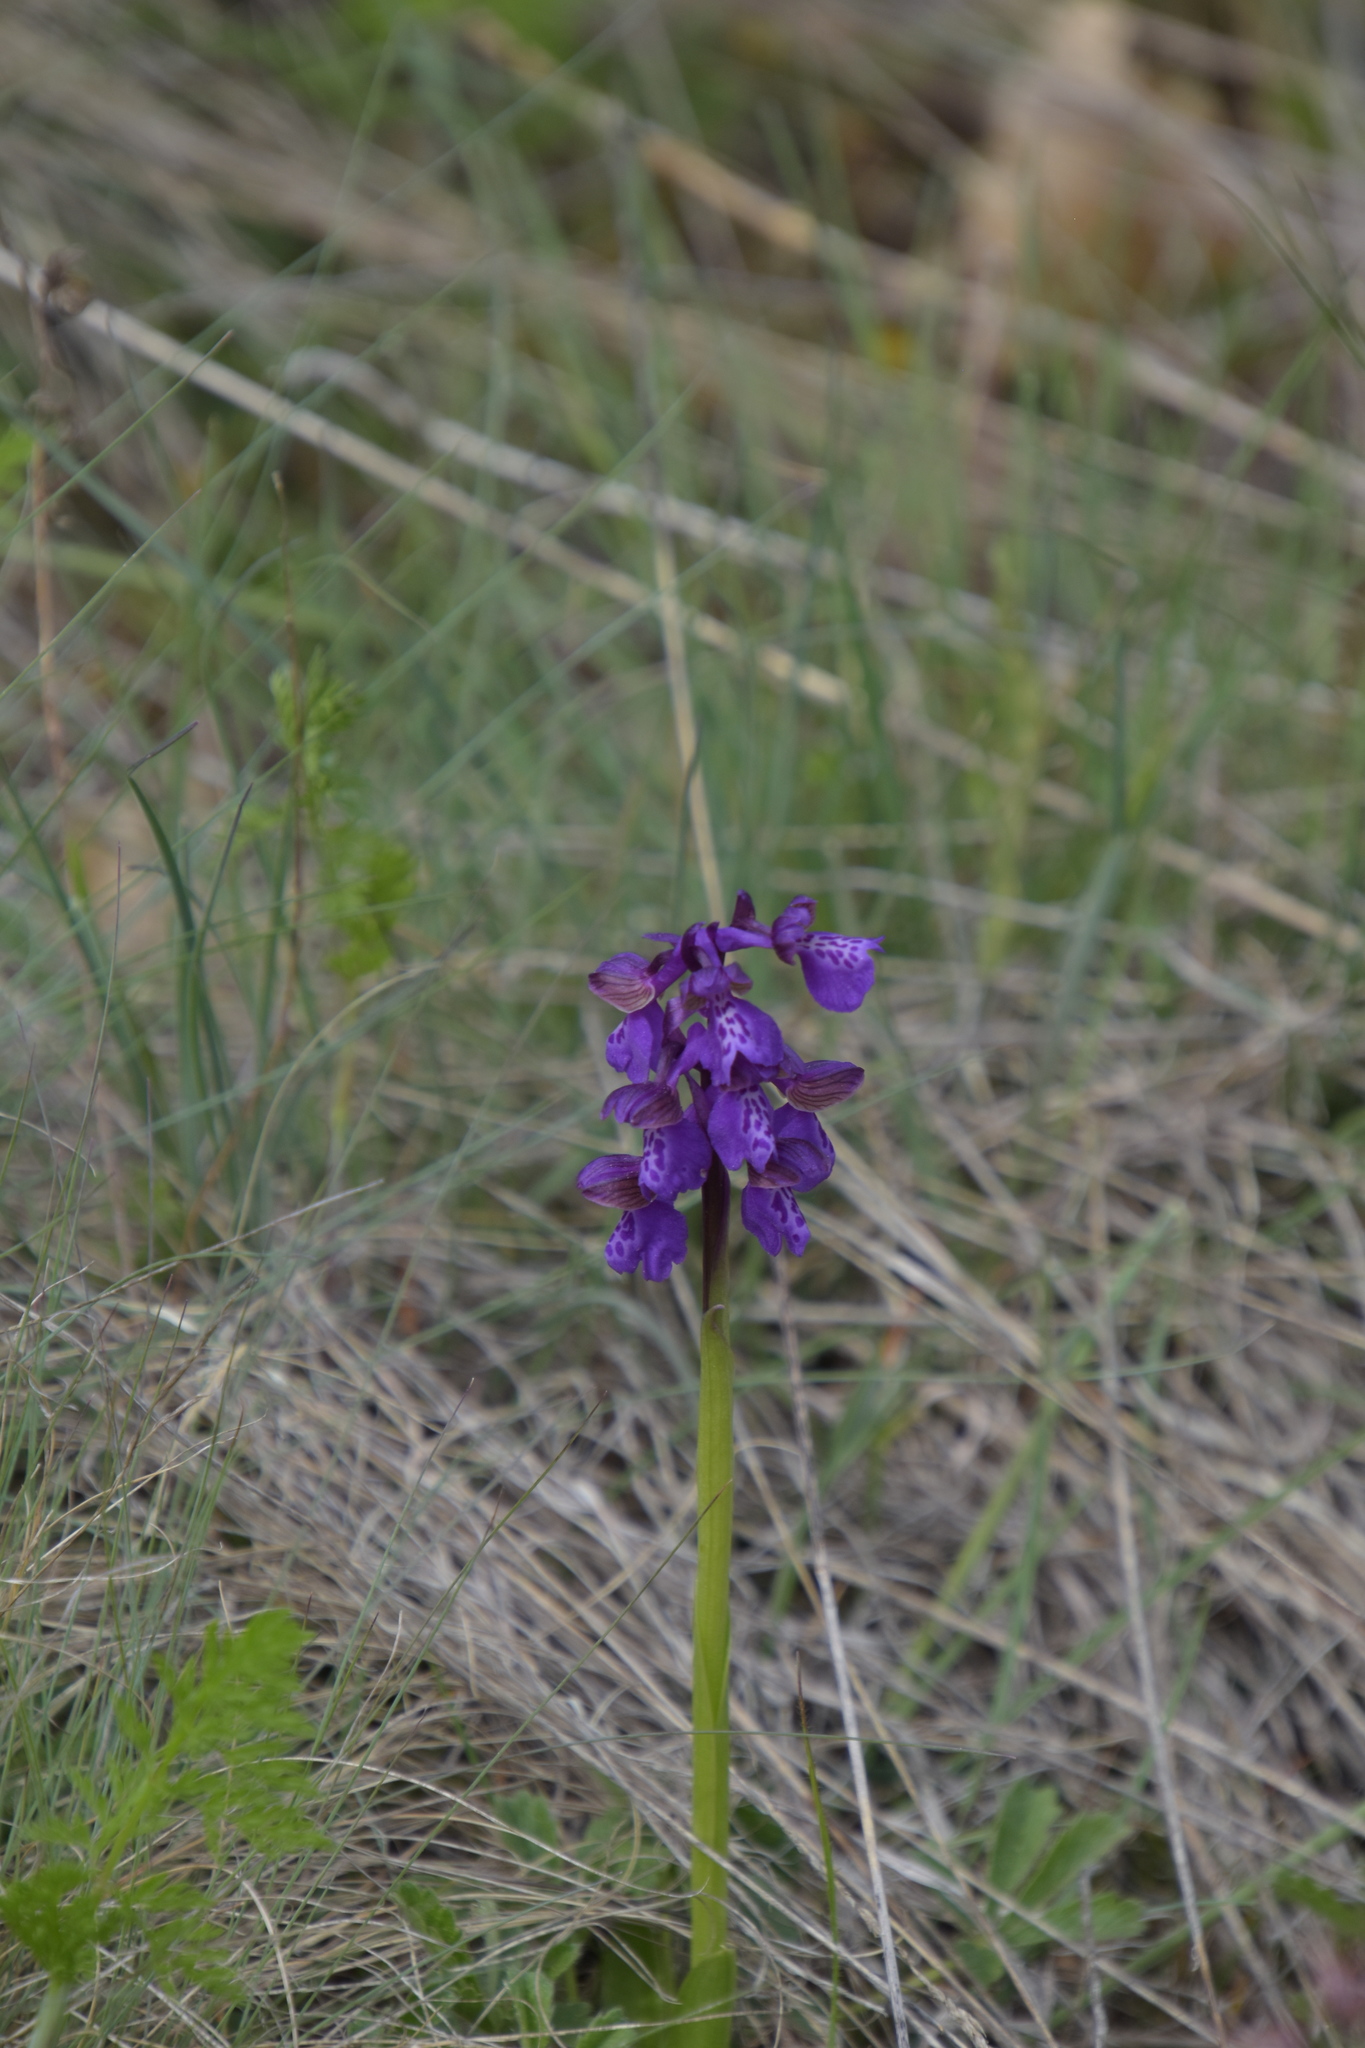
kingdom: Plantae
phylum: Tracheophyta
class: Liliopsida
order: Asparagales
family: Orchidaceae
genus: Anacamptis
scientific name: Anacamptis morio
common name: Green-winged orchid
